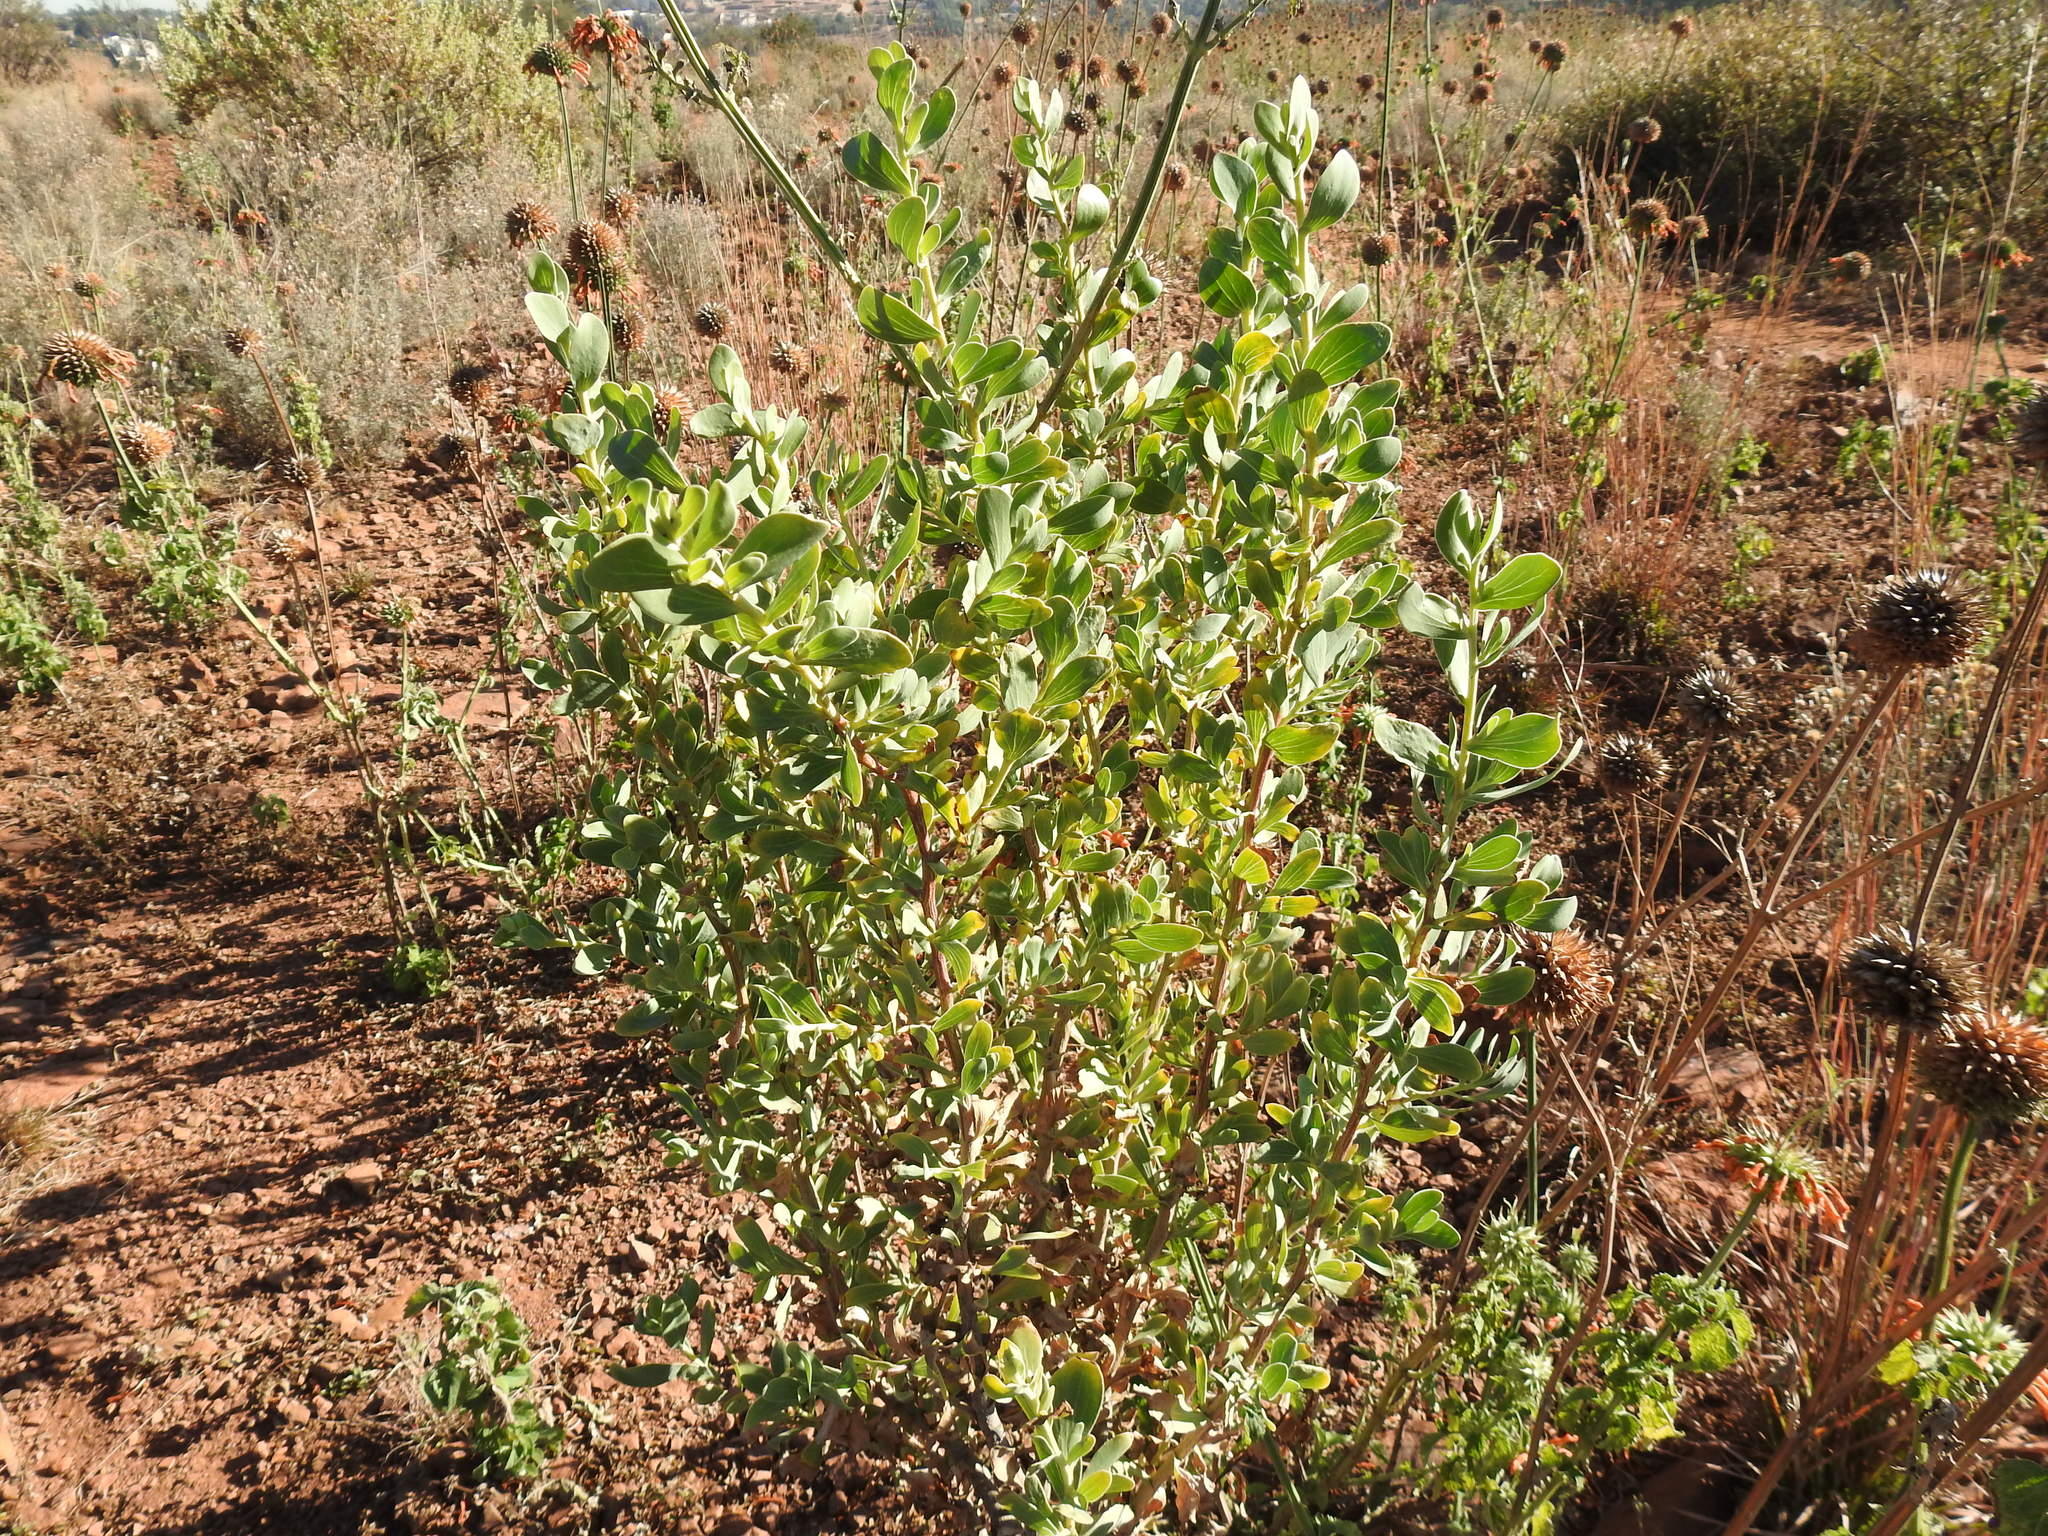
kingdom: Plantae
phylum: Tracheophyta
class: Magnoliopsida
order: Asterales
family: Asteraceae
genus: Lopholaena
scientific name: Lopholaena coriifolia
